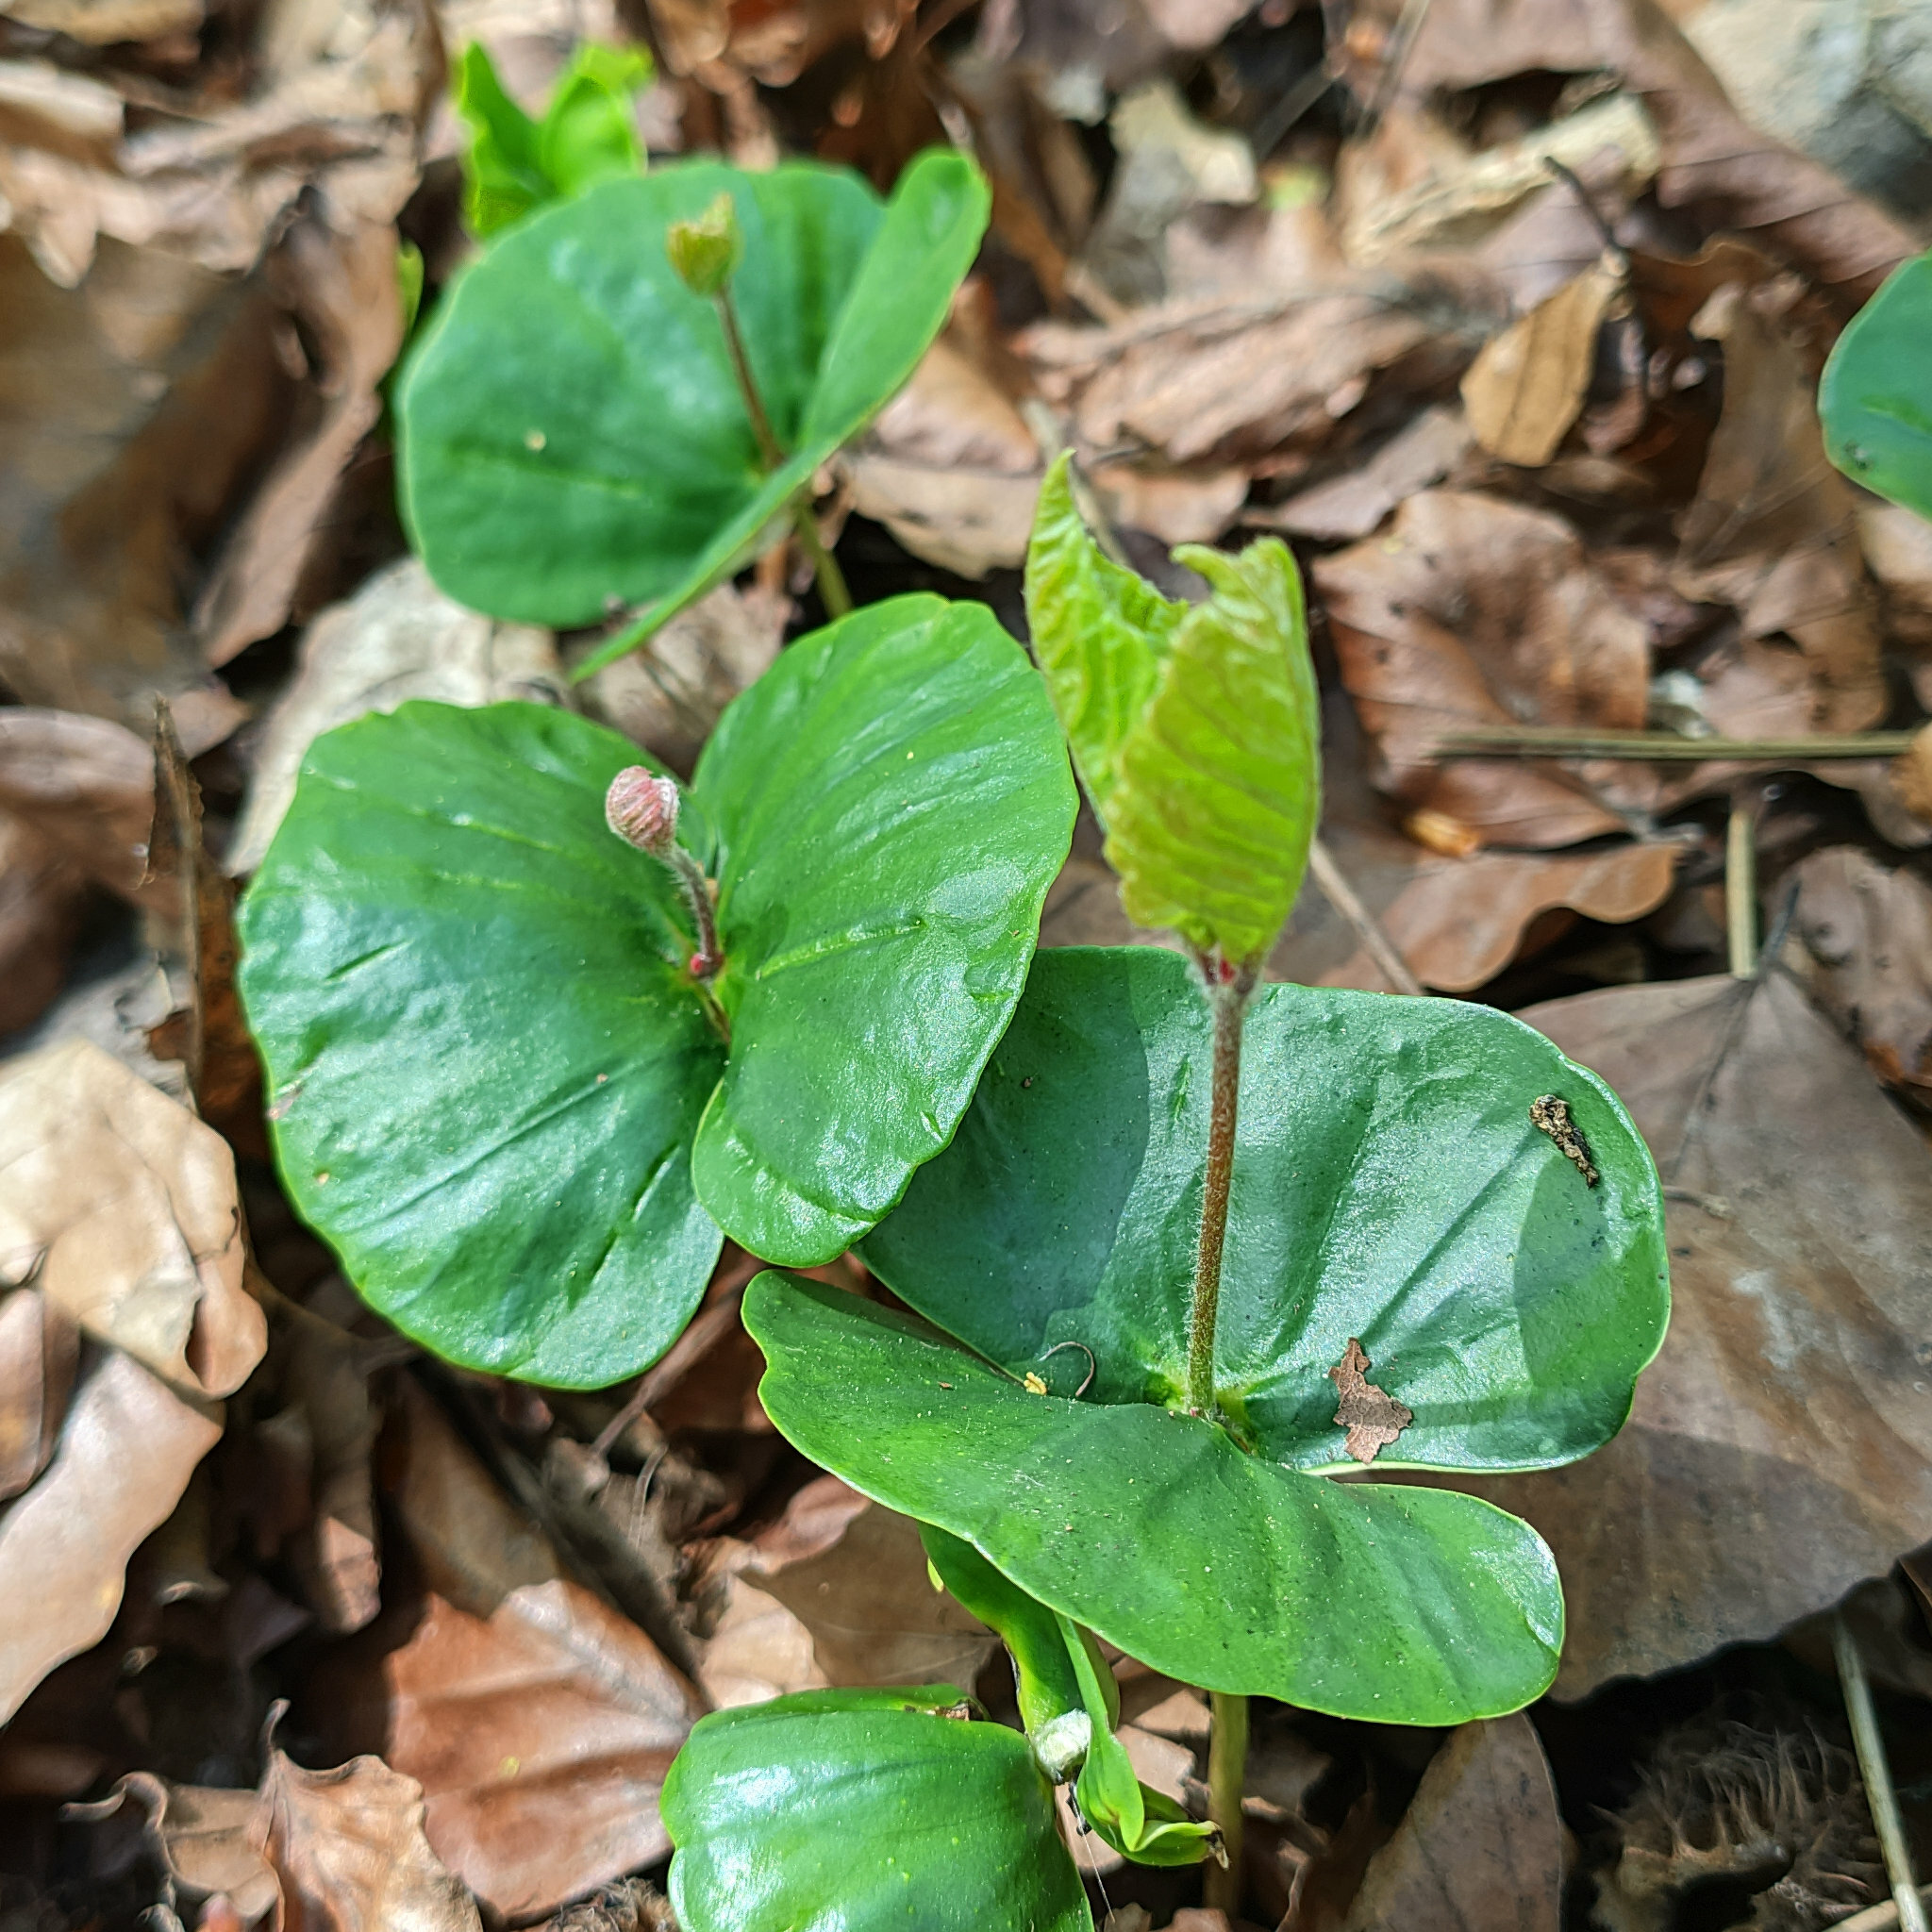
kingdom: Plantae
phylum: Tracheophyta
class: Magnoliopsida
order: Fagales
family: Fagaceae
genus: Fagus
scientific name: Fagus sylvatica
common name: Beech
